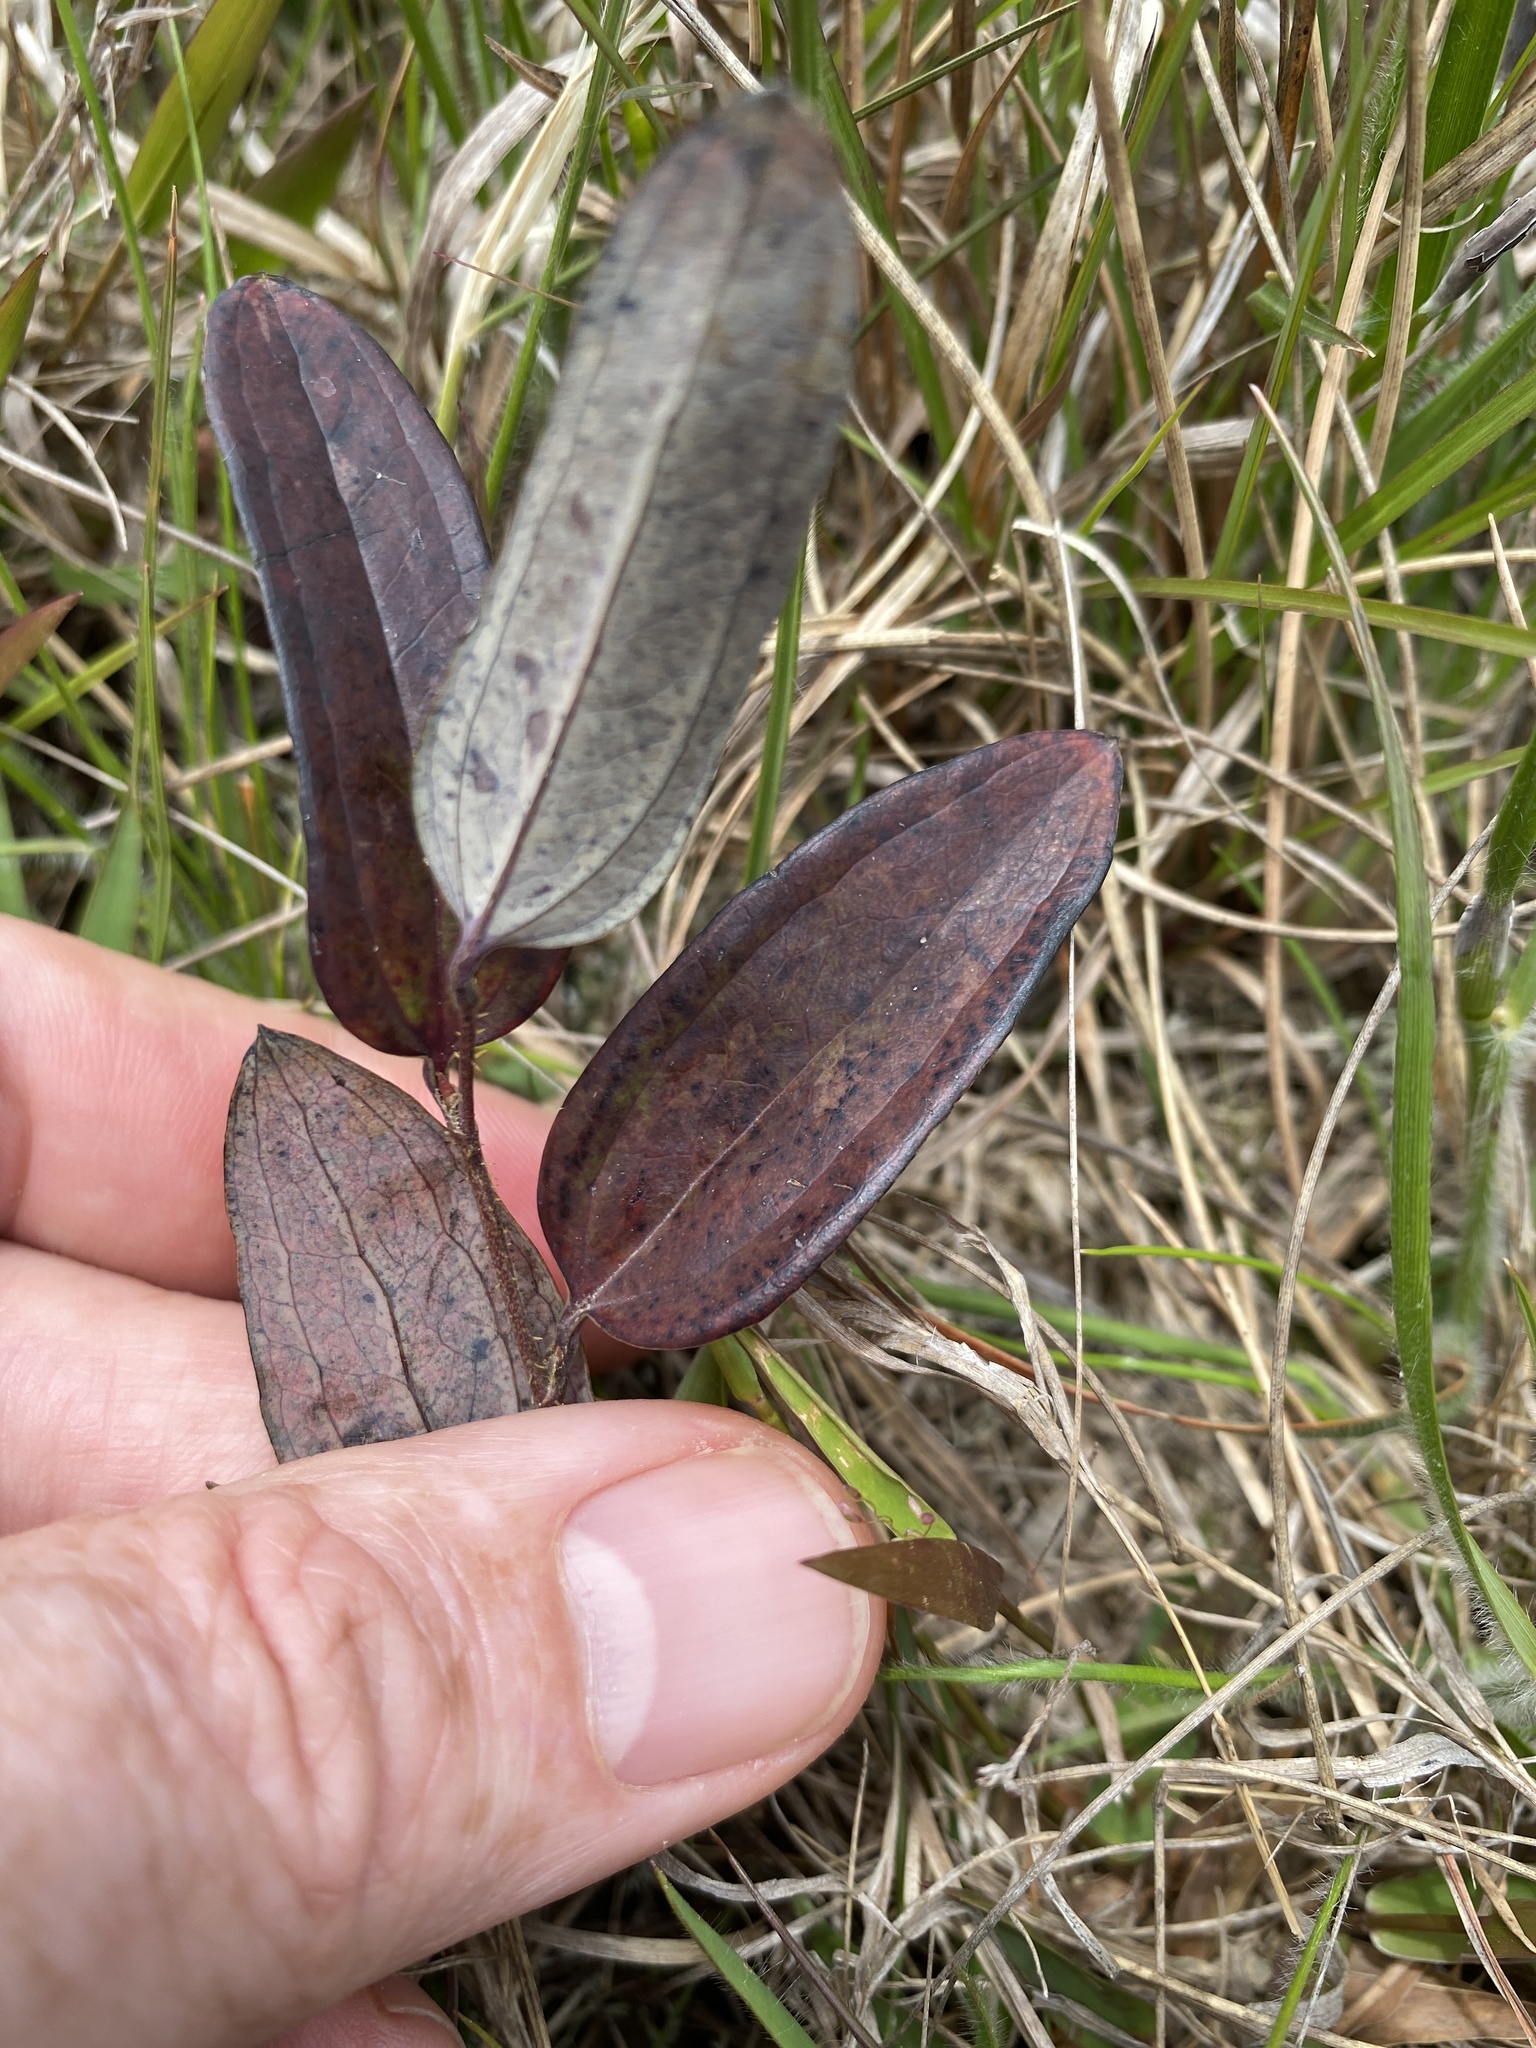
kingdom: Plantae
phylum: Tracheophyta
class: Liliopsida
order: Liliales
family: Smilacaceae
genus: Smilax
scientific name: Smilax glauca
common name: Cat greenbrier
